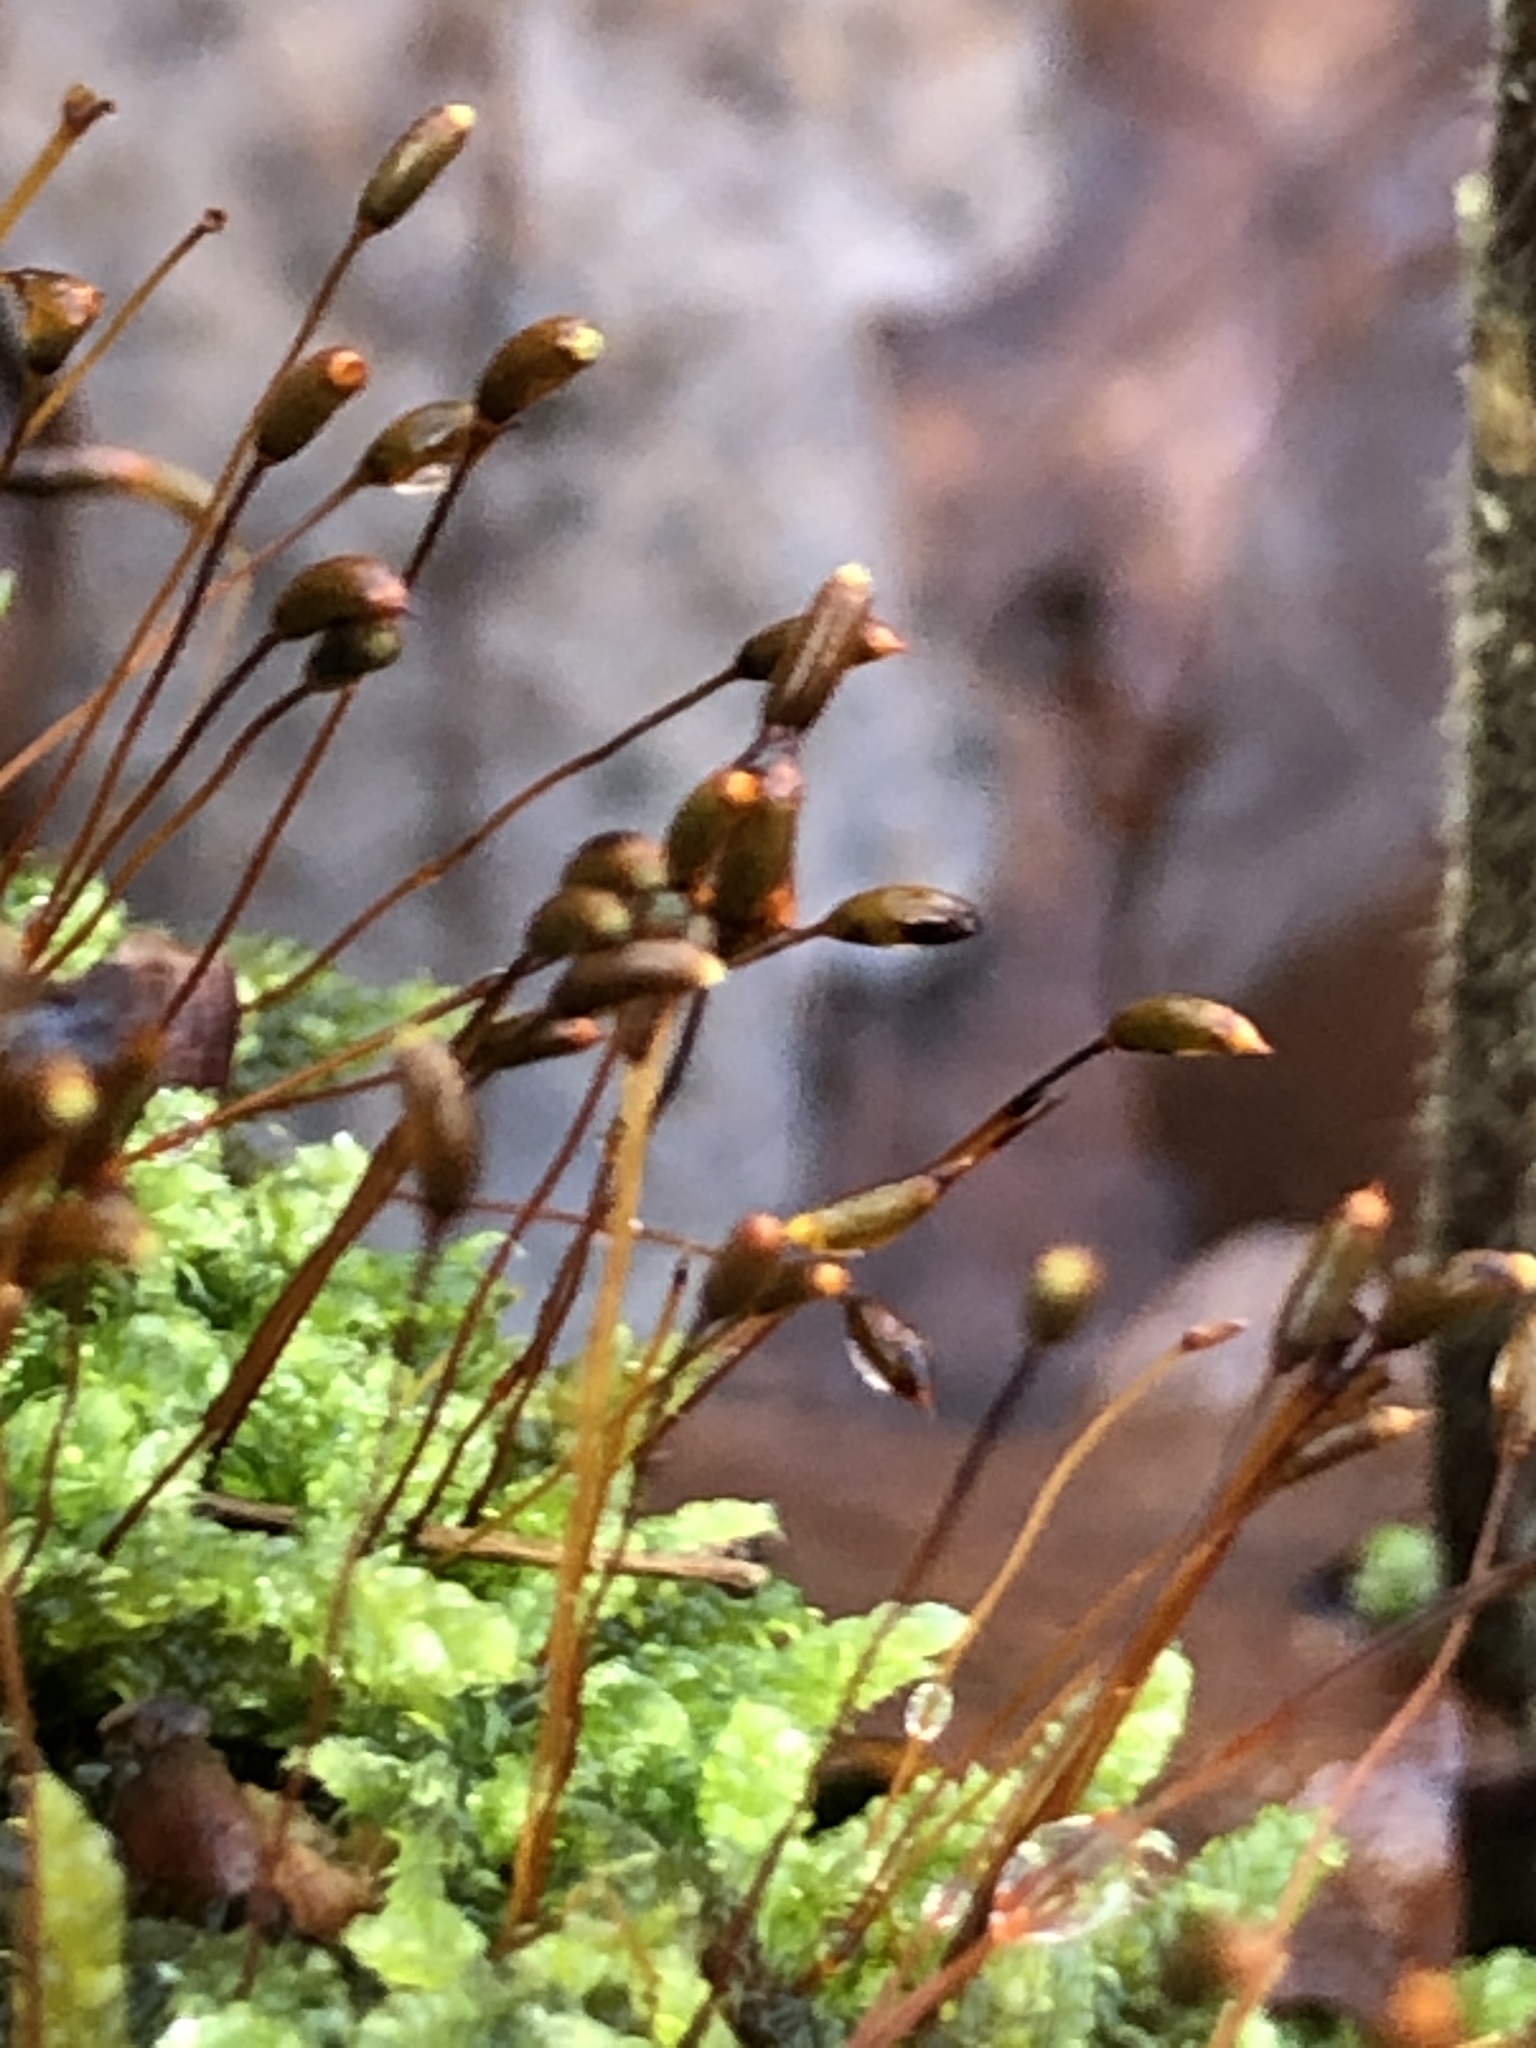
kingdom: Plantae
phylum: Bryophyta
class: Bryopsida
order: Hypnales
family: Hypnaceae
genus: Hypnum
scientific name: Hypnum cupressiforme
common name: Cypress-leaved plait-moss
